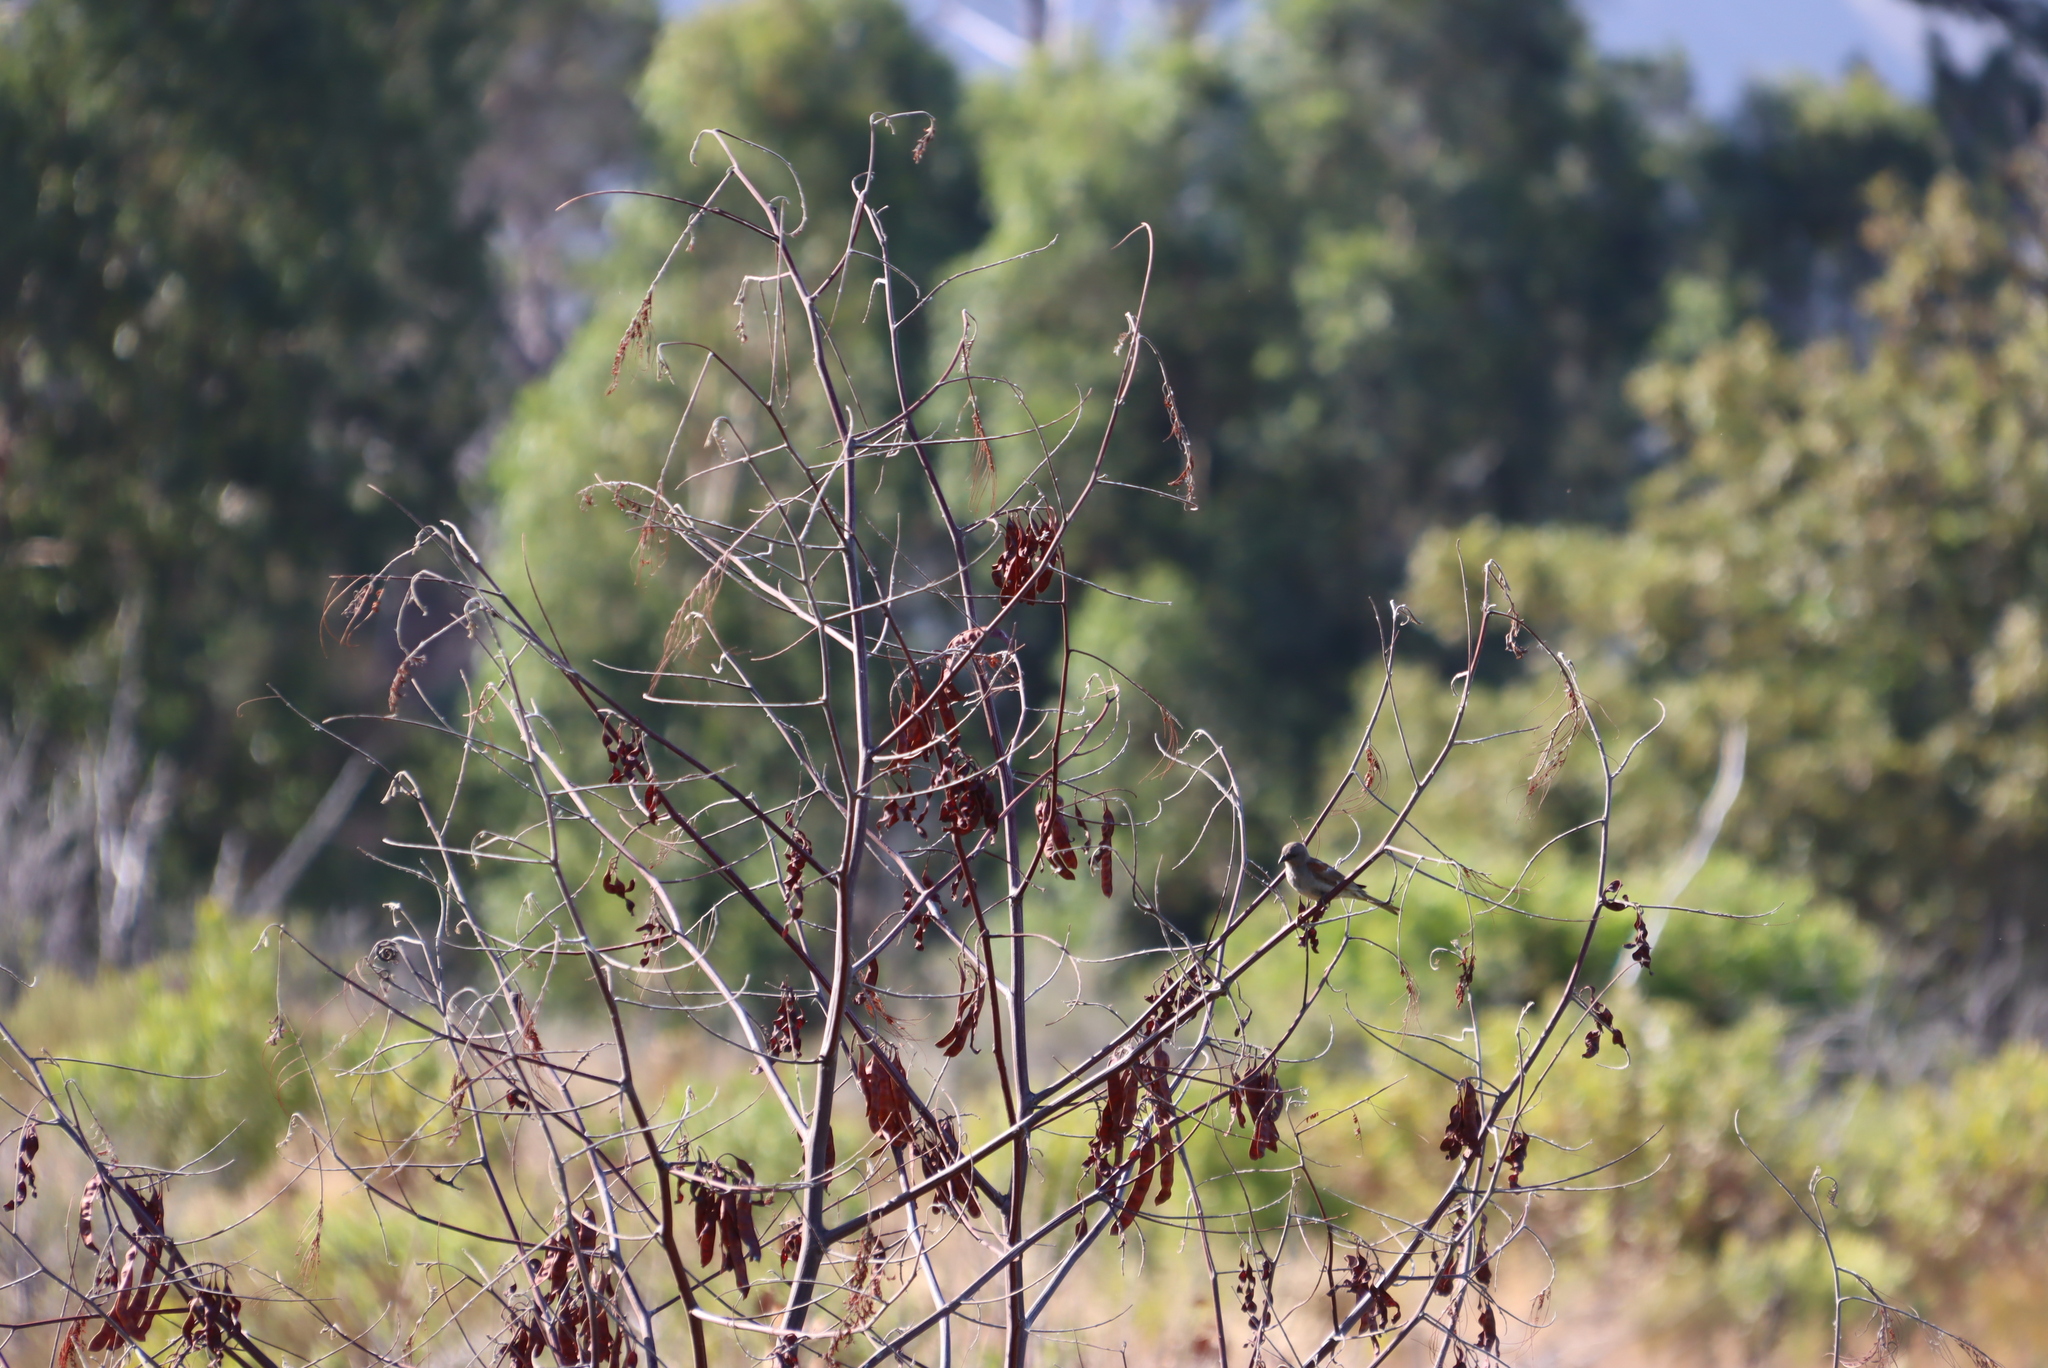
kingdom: Plantae
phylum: Tracheophyta
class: Magnoliopsida
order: Fabales
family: Fabaceae
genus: Paraserianthes
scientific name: Paraserianthes lophantha
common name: Plume albizia
